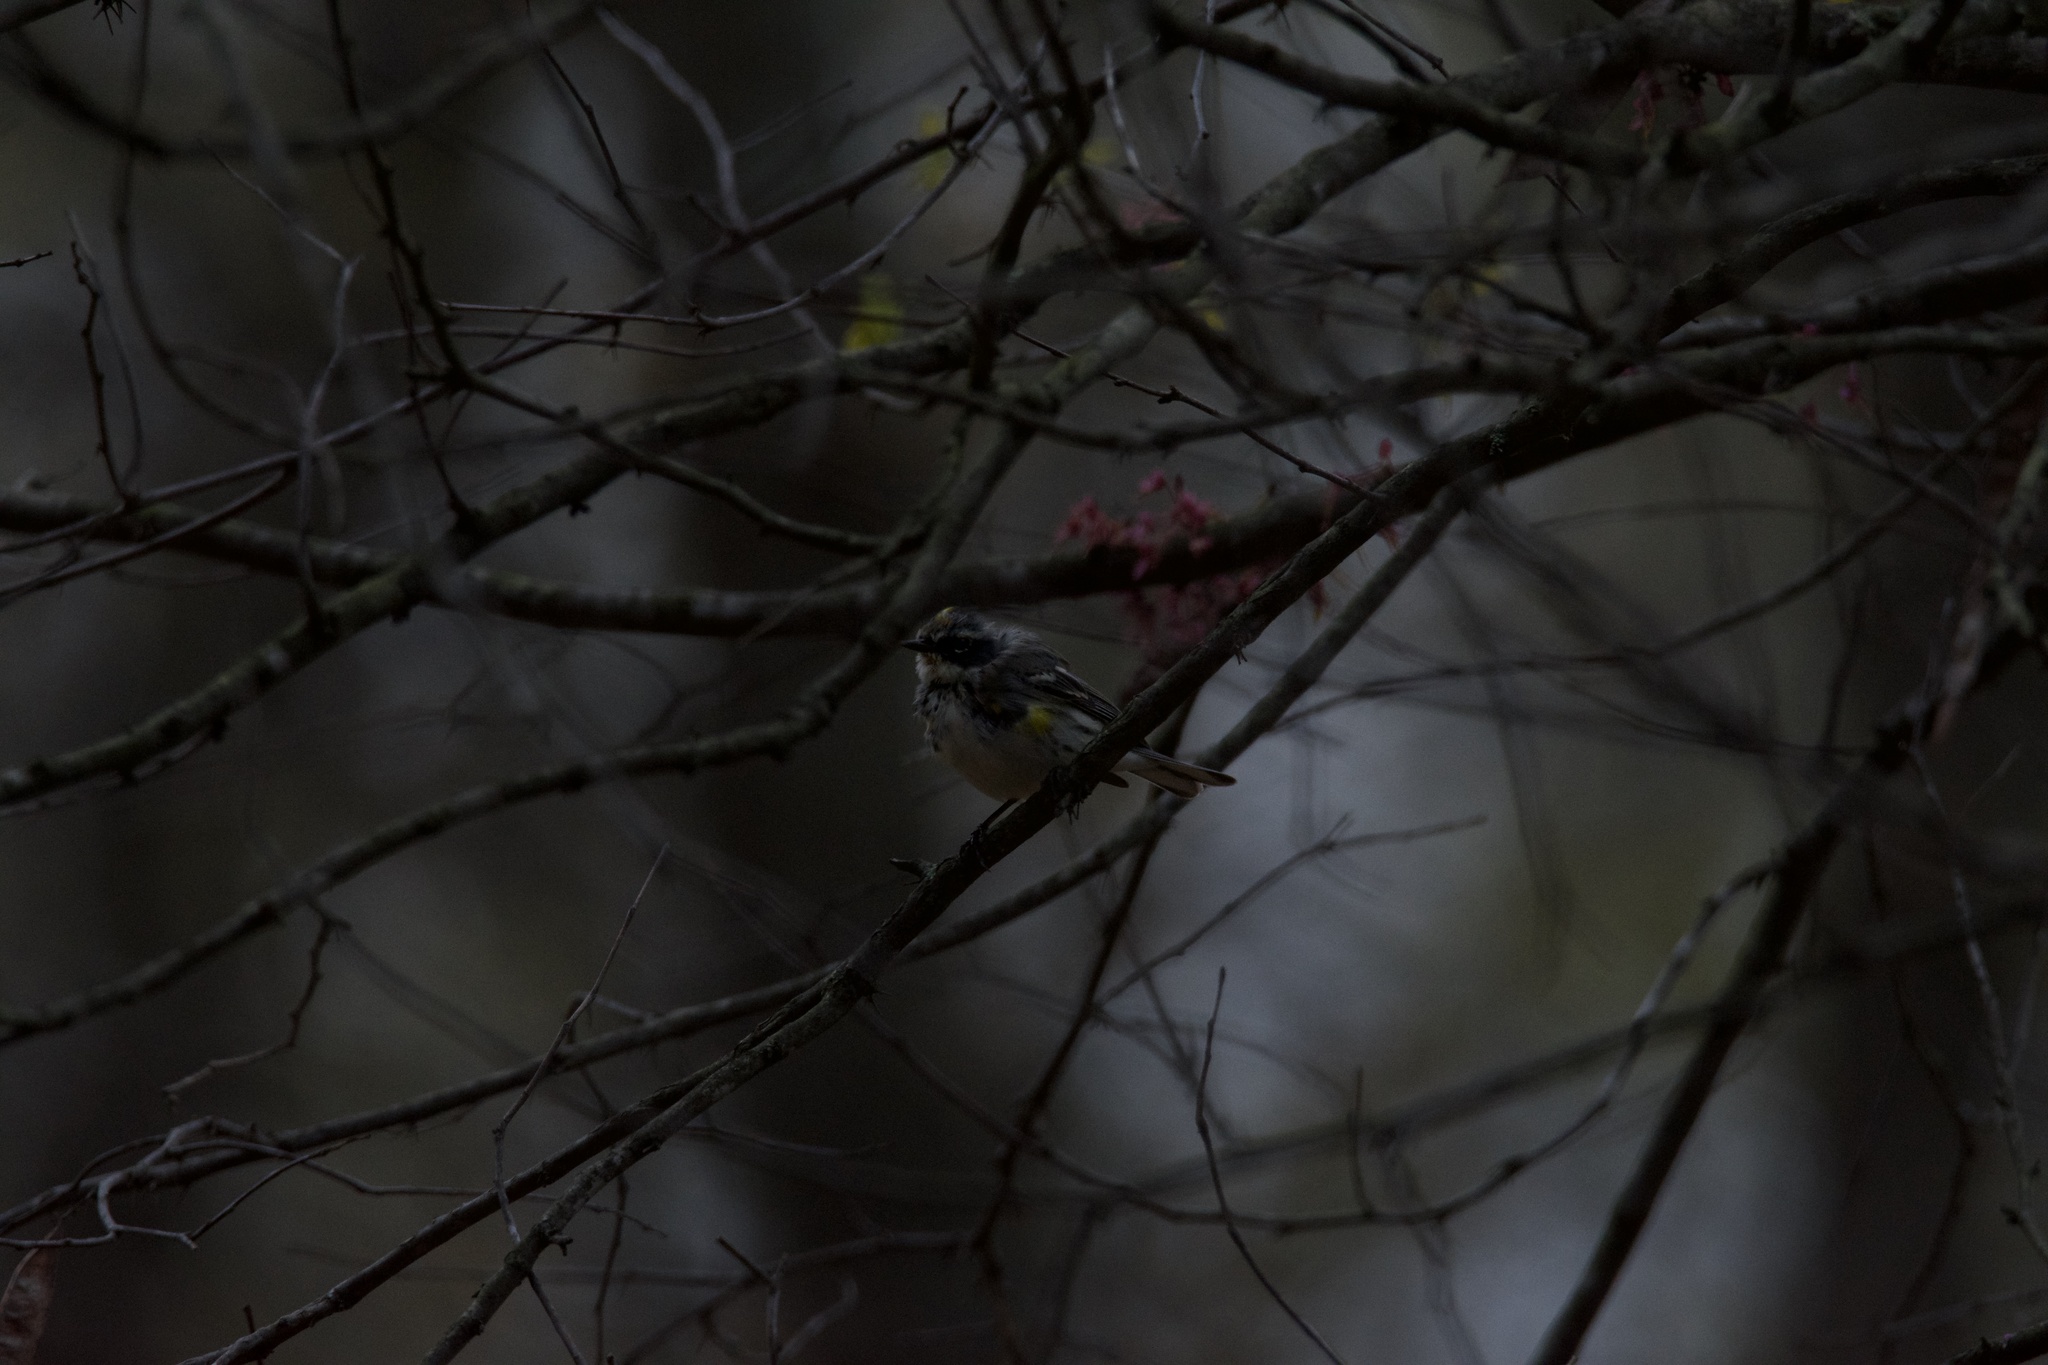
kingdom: Animalia
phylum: Chordata
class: Aves
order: Passeriformes
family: Parulidae
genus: Setophaga
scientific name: Setophaga coronata
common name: Myrtle warbler
